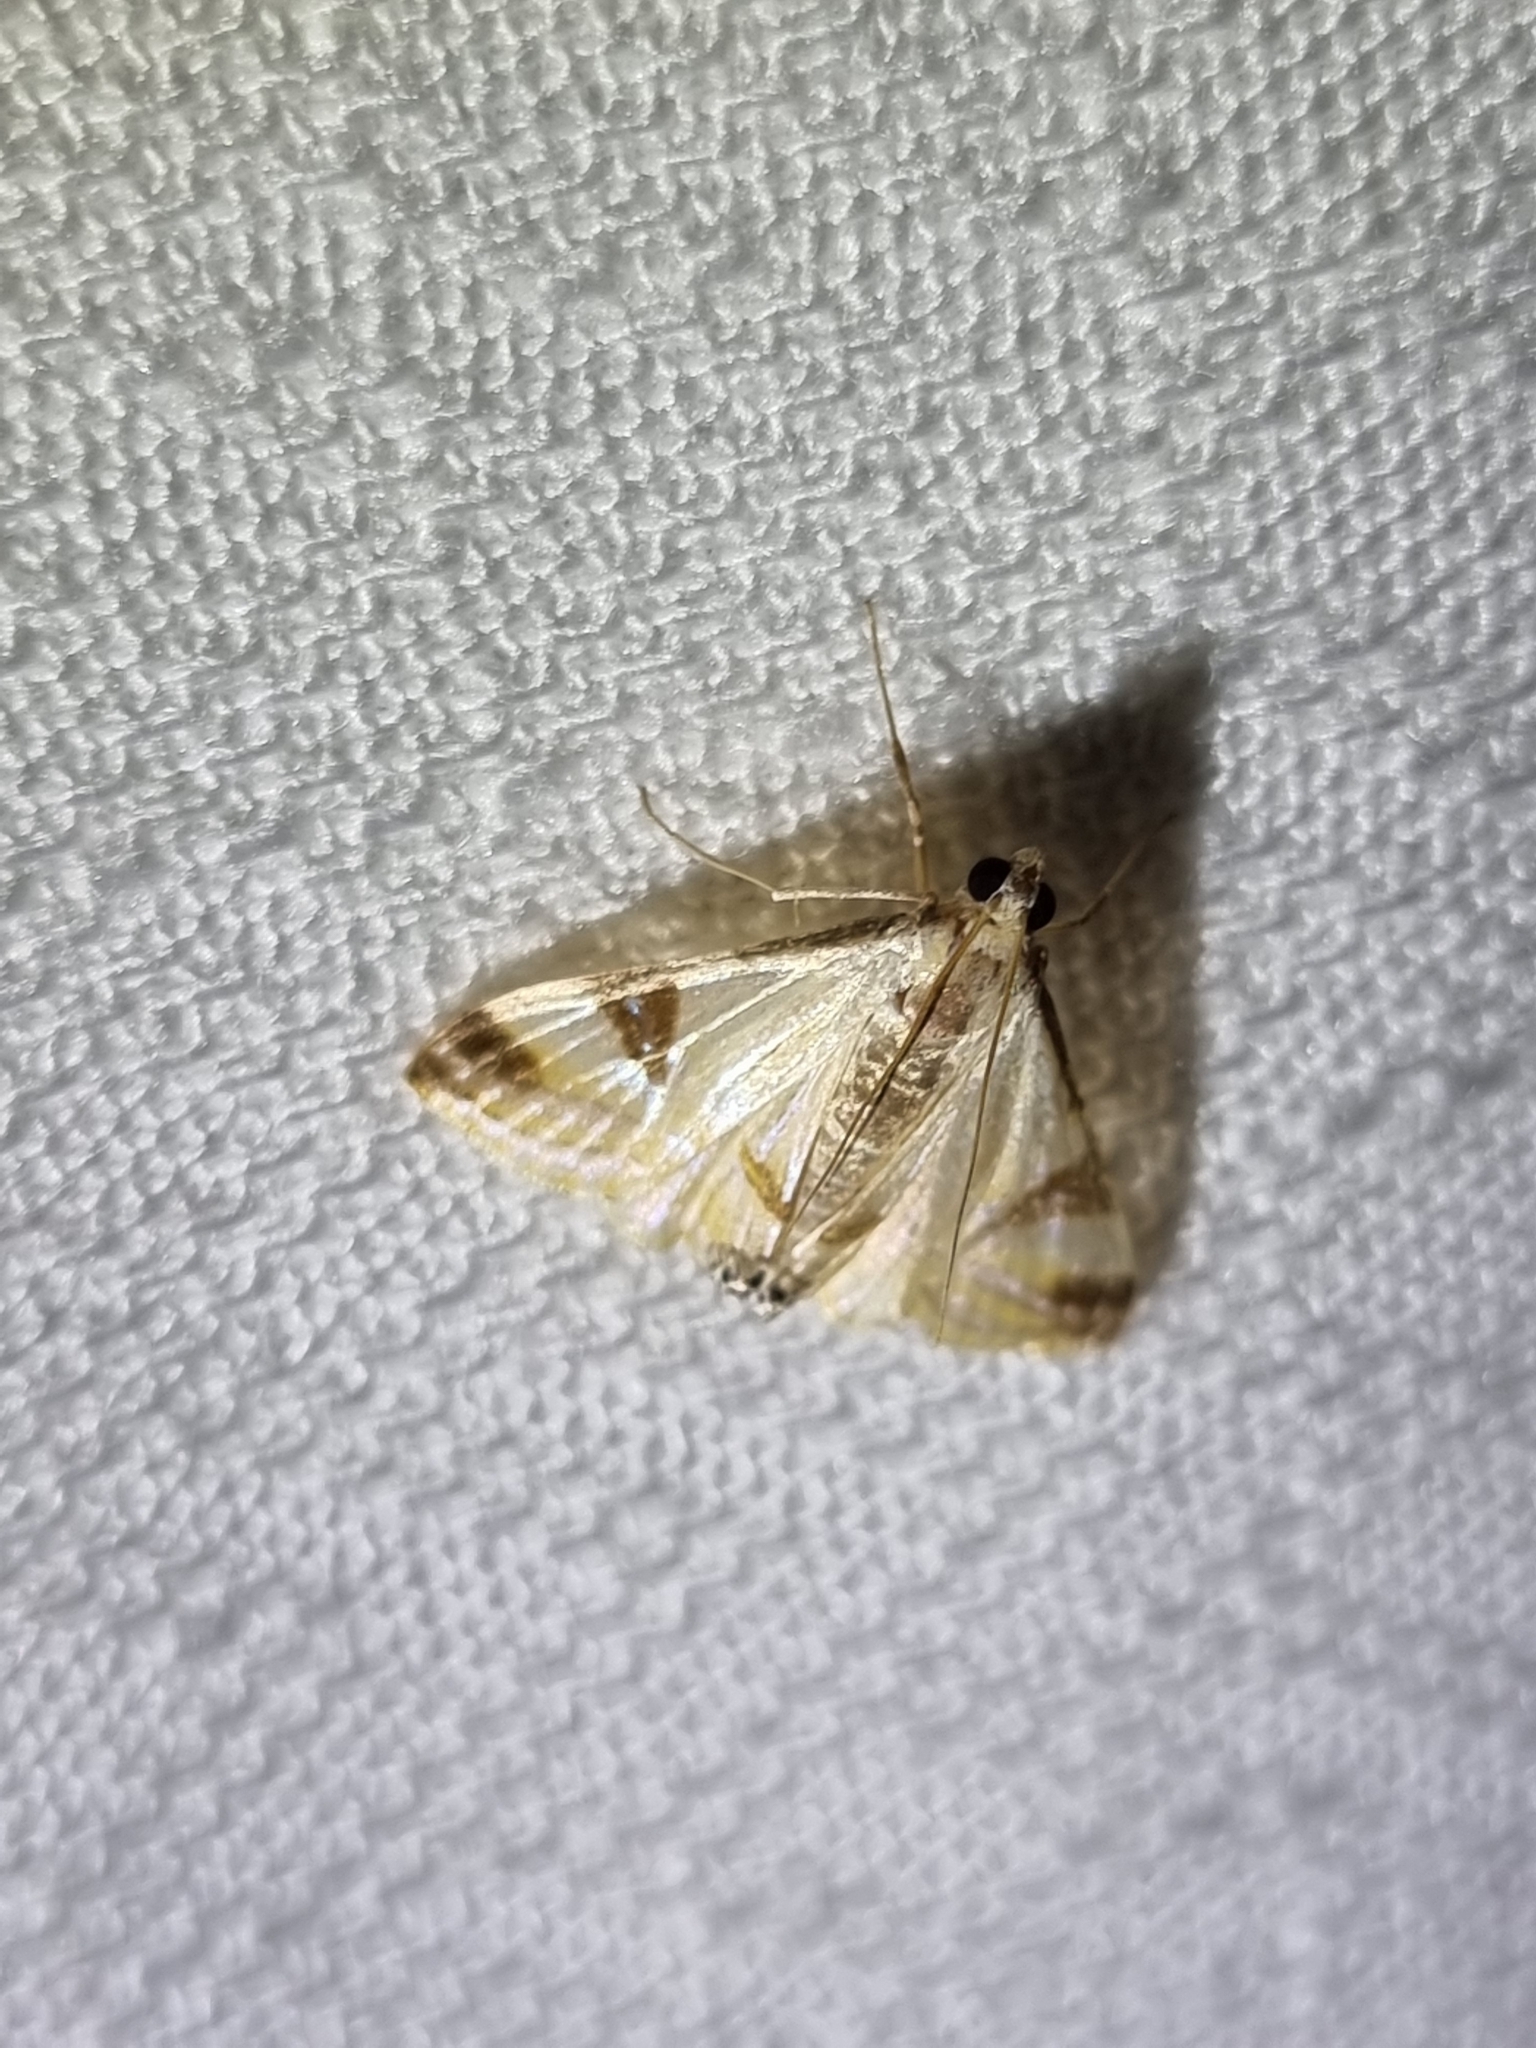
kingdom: Animalia
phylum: Arthropoda
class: Insecta
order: Lepidoptera
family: Crambidae
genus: Talanga
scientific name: Talanga tolumnialis
